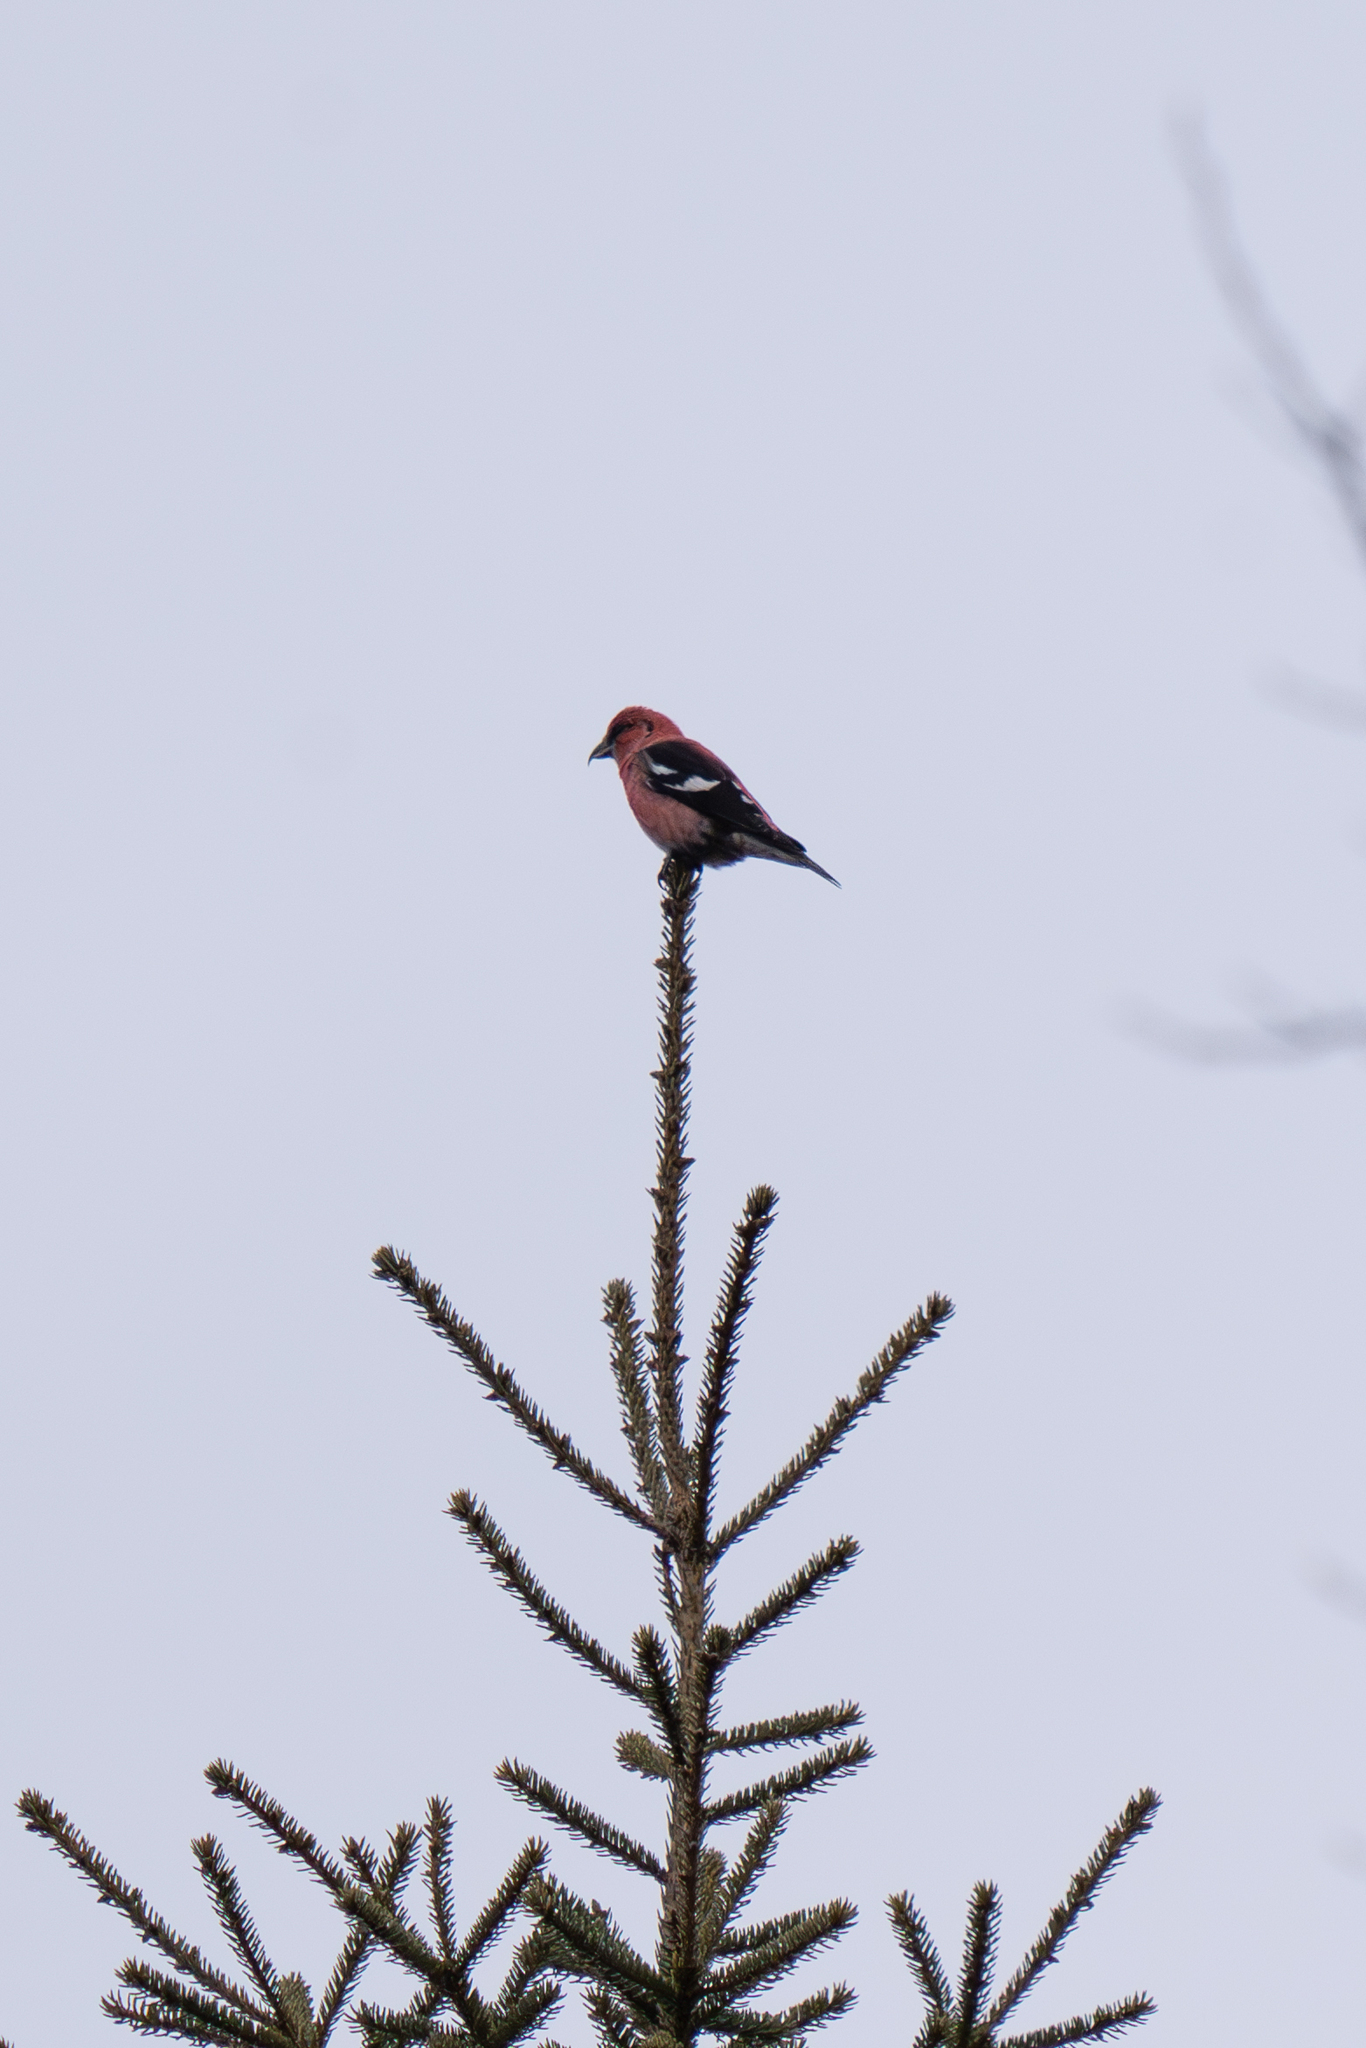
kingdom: Animalia
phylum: Chordata
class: Aves
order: Passeriformes
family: Fringillidae
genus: Loxia
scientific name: Loxia leucoptera
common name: Two-barred crossbill
